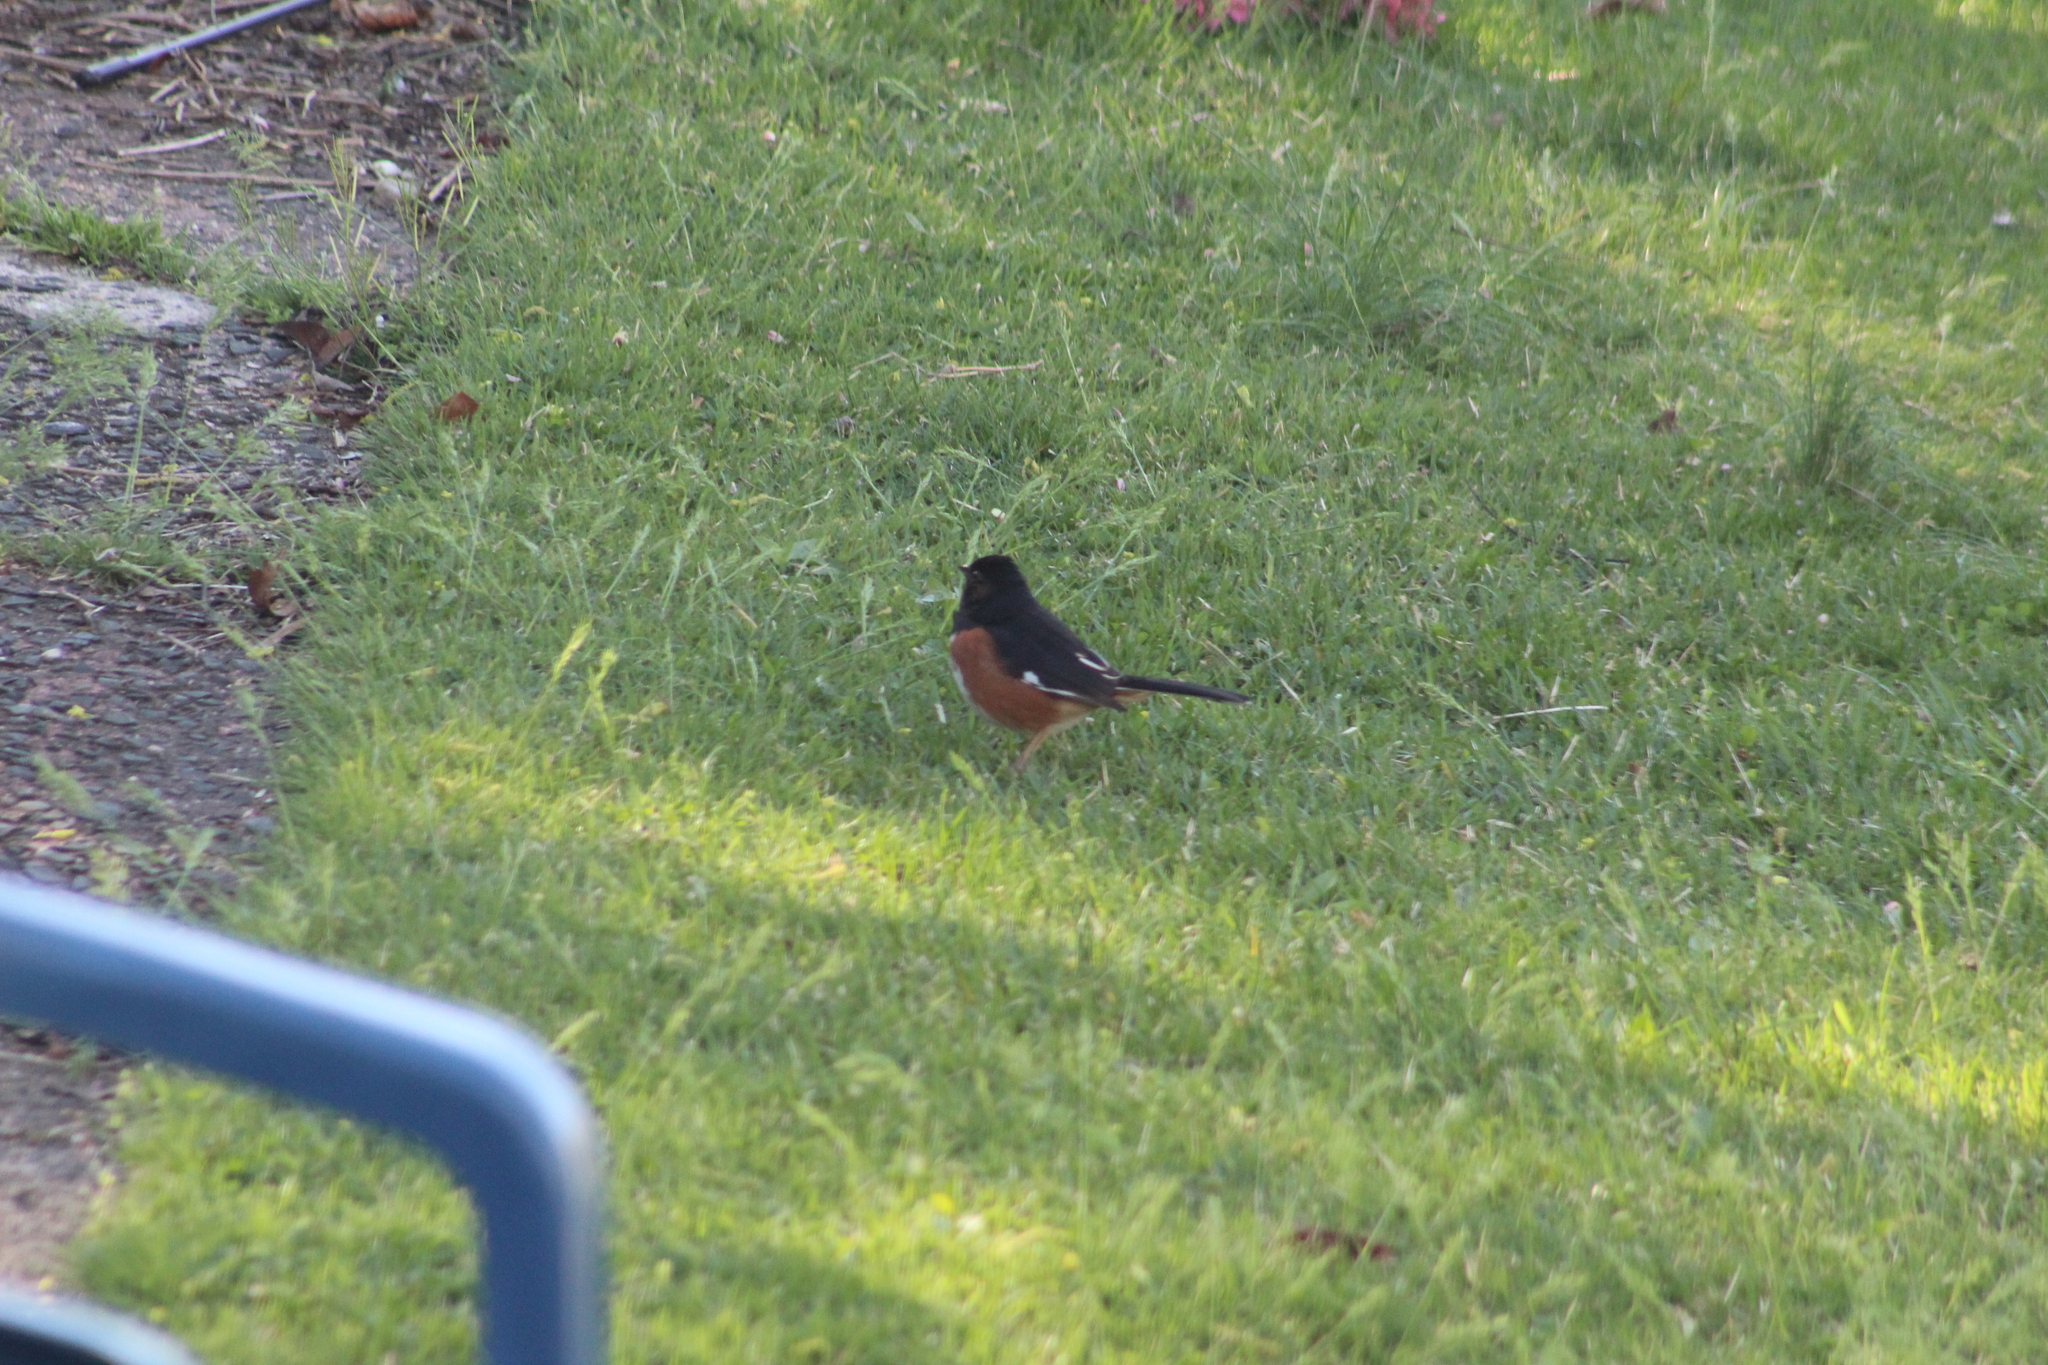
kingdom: Animalia
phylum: Chordata
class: Aves
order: Passeriformes
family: Passerellidae
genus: Pipilo
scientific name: Pipilo erythrophthalmus
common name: Eastern towhee
